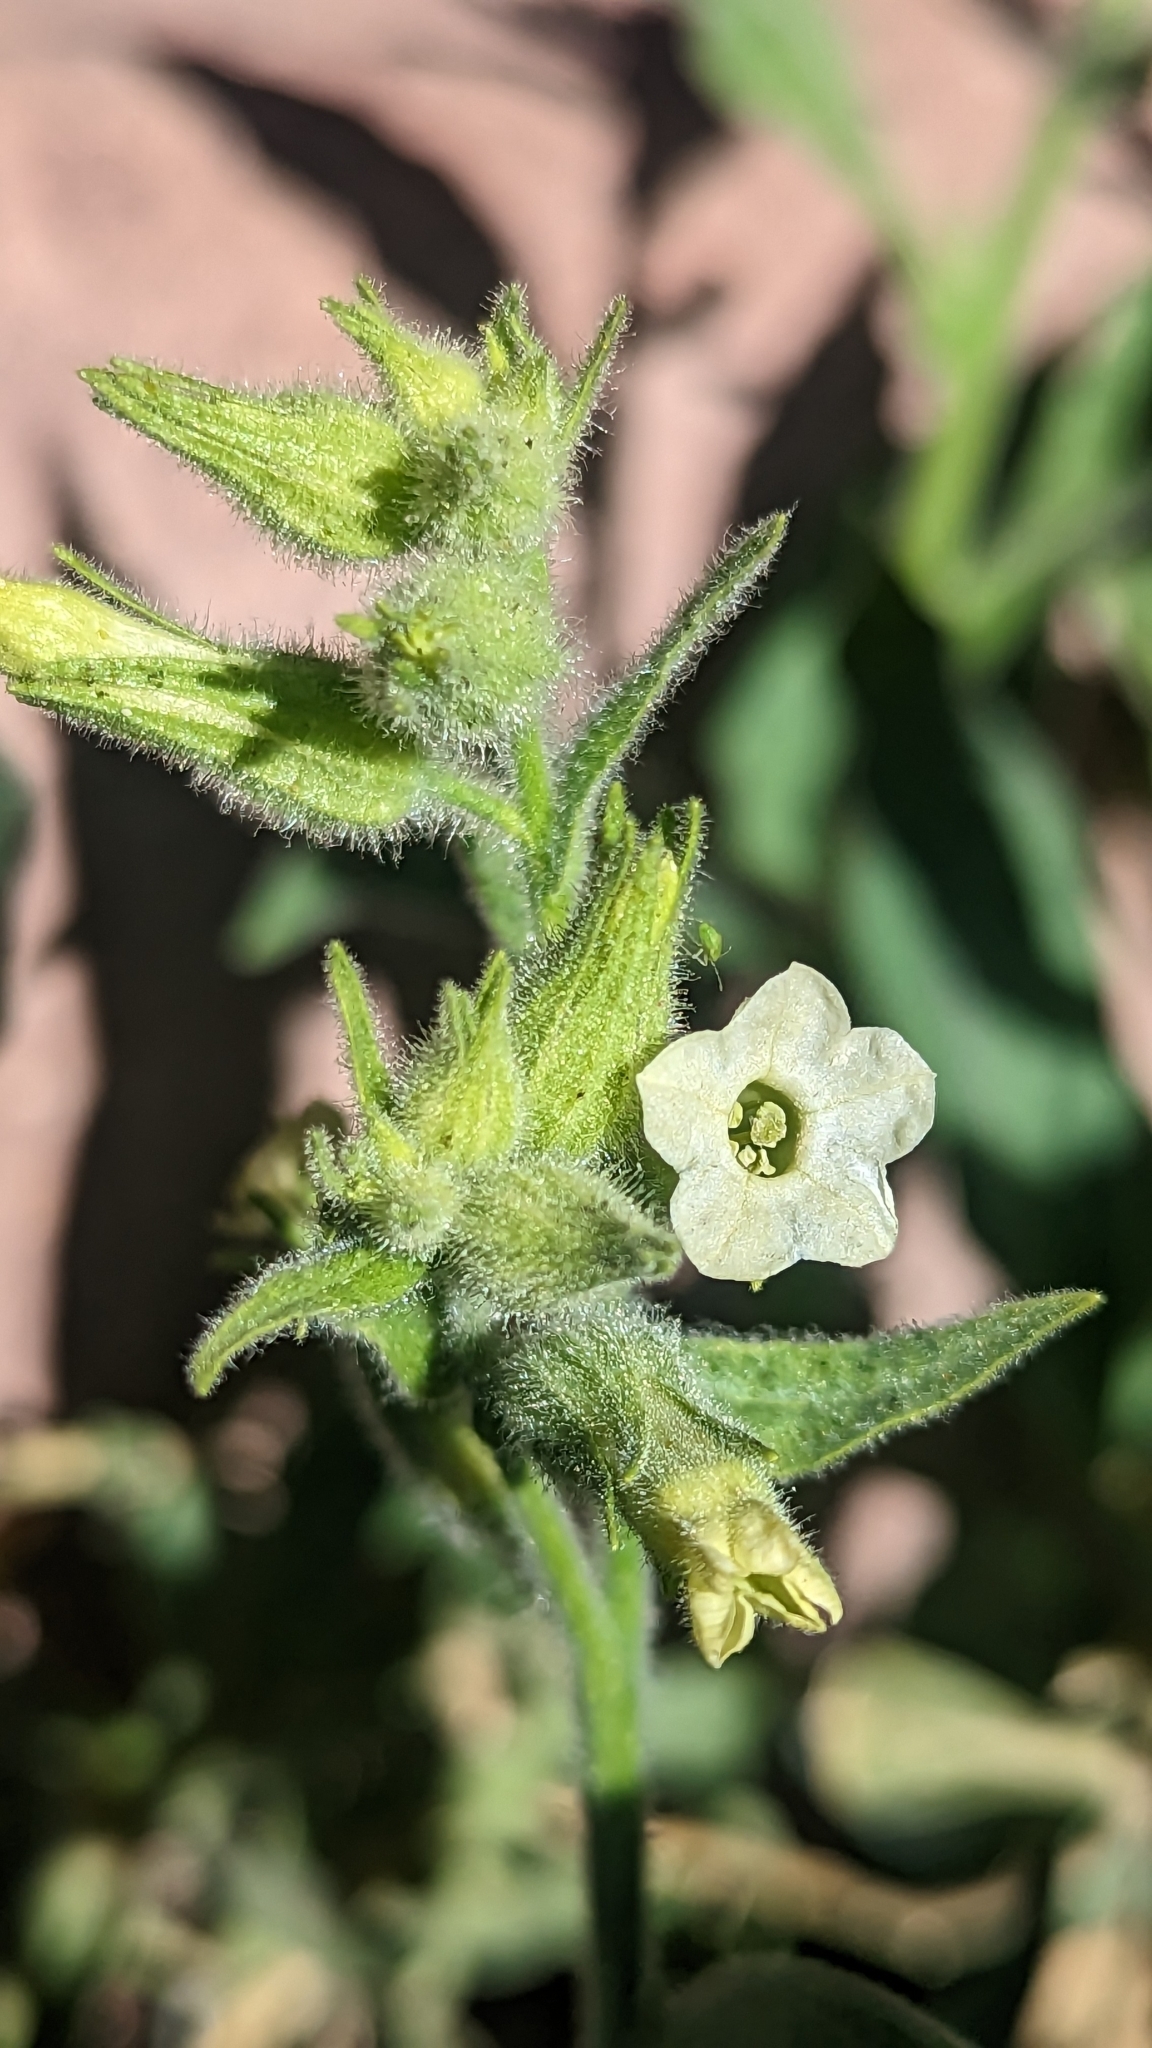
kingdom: Plantae
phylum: Tracheophyta
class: Magnoliopsida
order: Solanales
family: Solanaceae
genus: Nicotiana
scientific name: Nicotiana obtusifolia
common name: Desert tobacco
